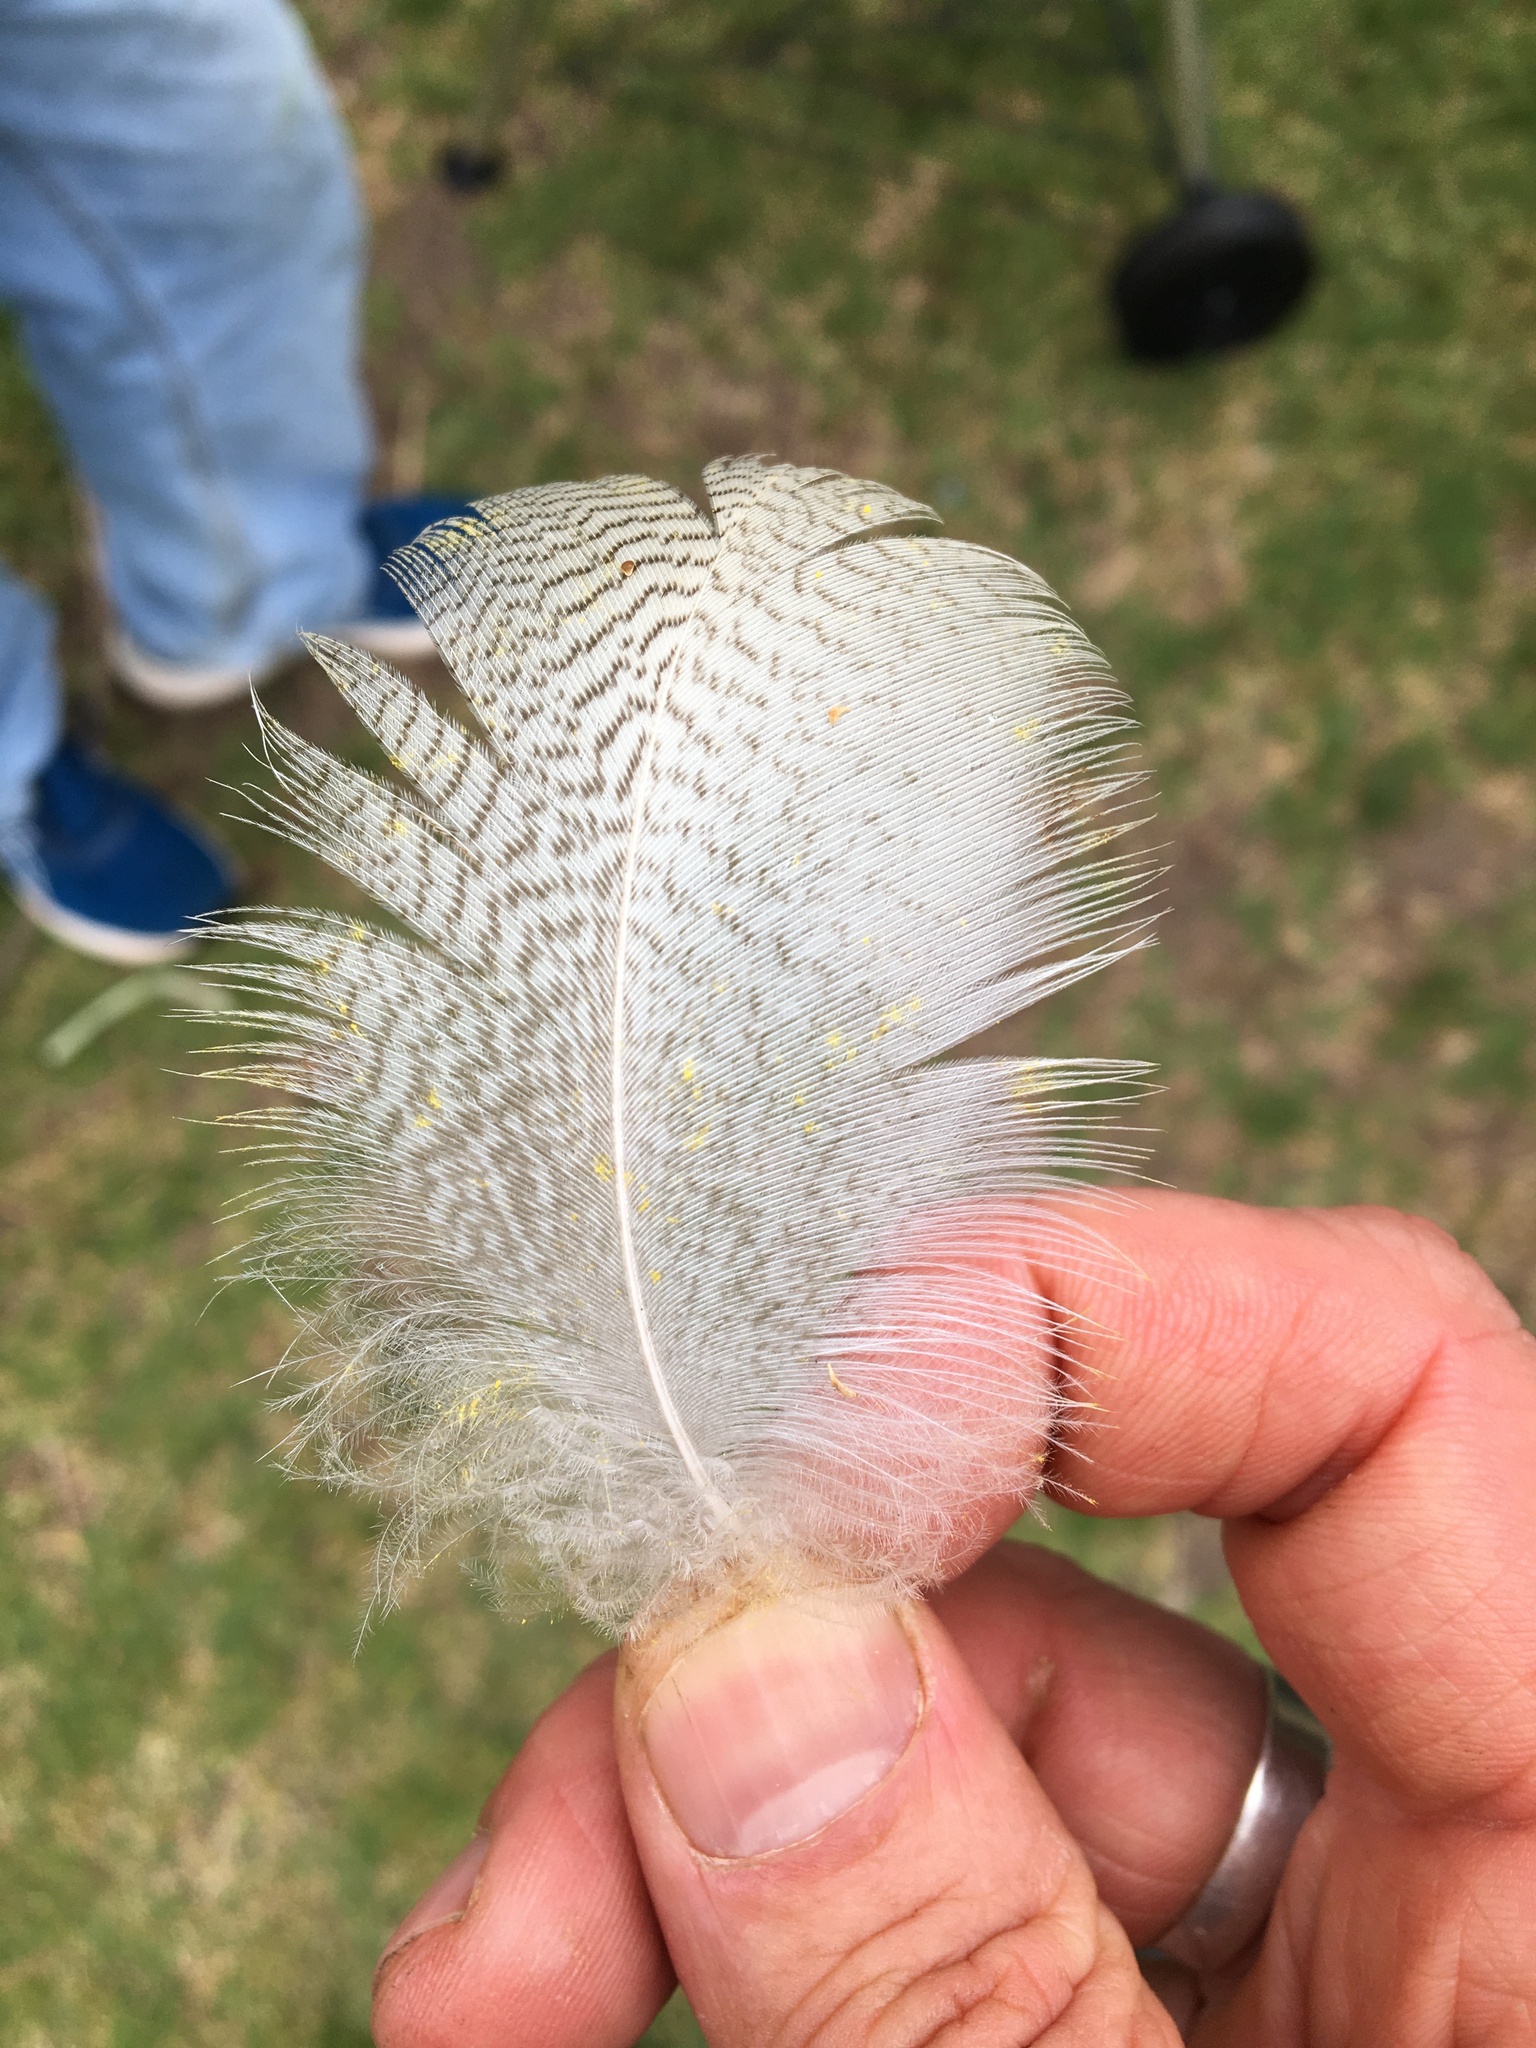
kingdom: Animalia
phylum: Chordata
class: Aves
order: Anseriformes
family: Anatidae
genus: Alopochen
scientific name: Alopochen aegyptiaca
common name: Egyptian goose
